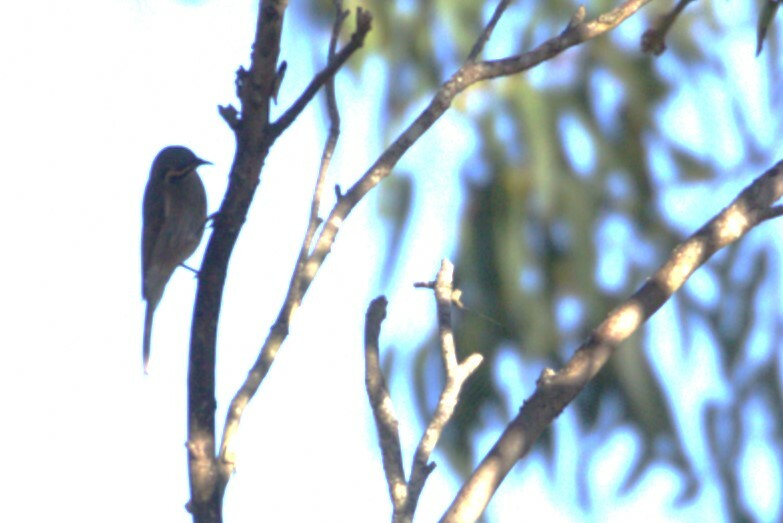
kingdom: Animalia
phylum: Chordata
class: Aves
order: Passeriformes
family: Meliphagidae
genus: Caligavis
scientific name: Caligavis chrysops
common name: Yellow-faced honeyeater
